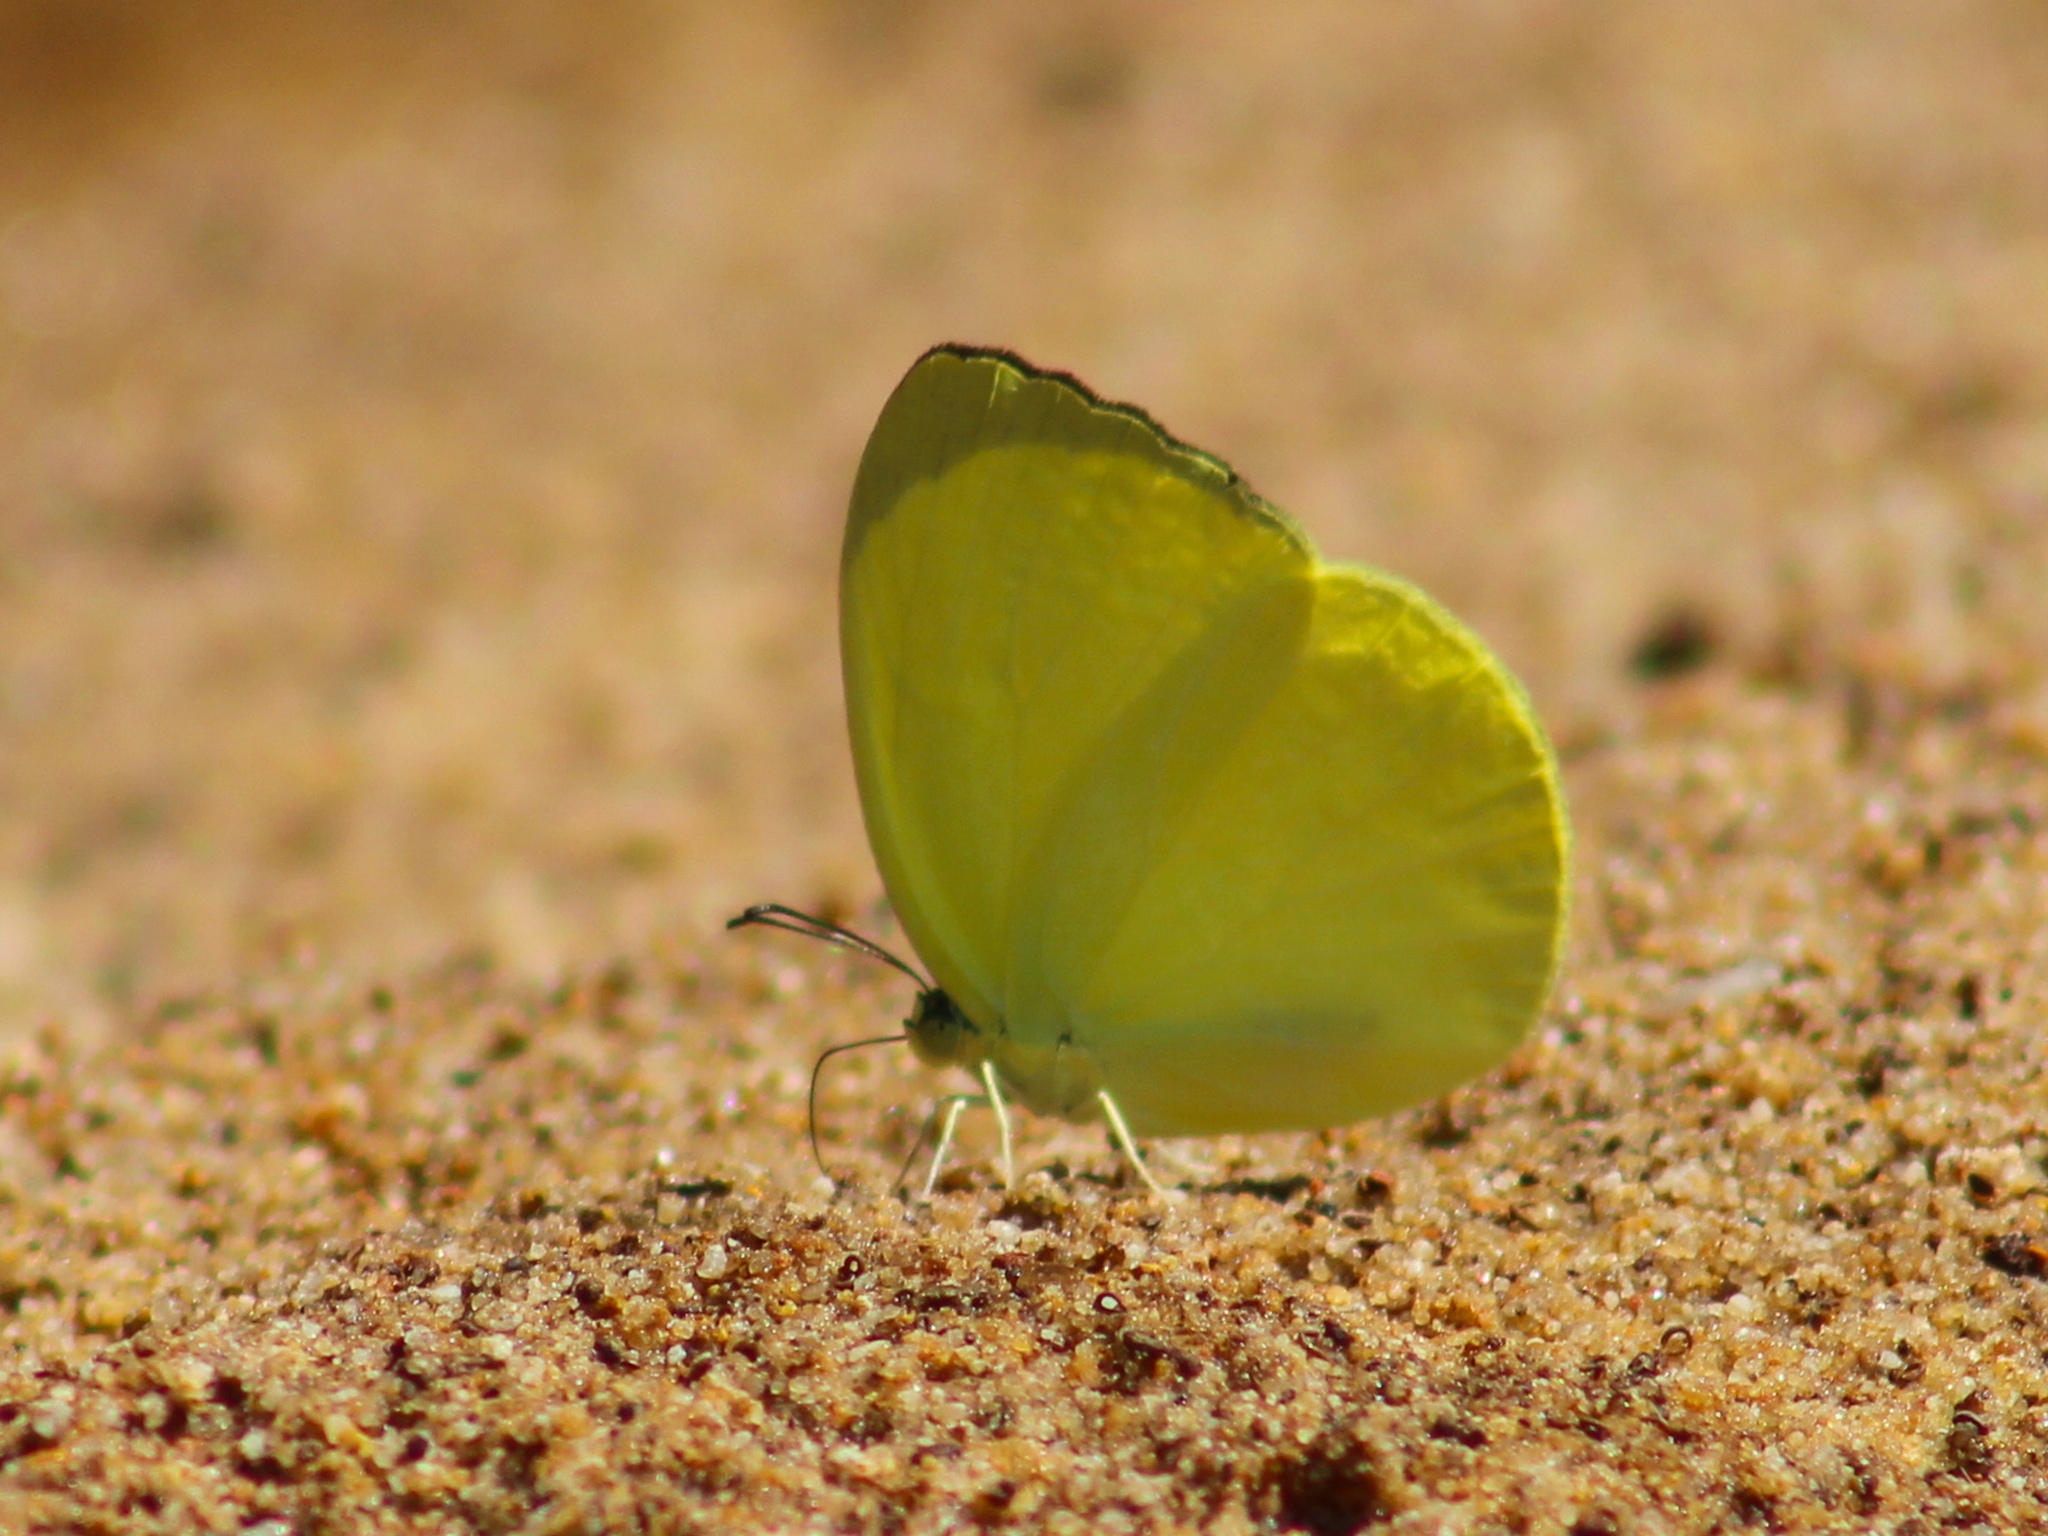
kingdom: Animalia
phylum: Arthropoda
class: Insecta
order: Lepidoptera
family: Pieridae
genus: Gandaca
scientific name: Gandaca harina
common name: Tree yellow
